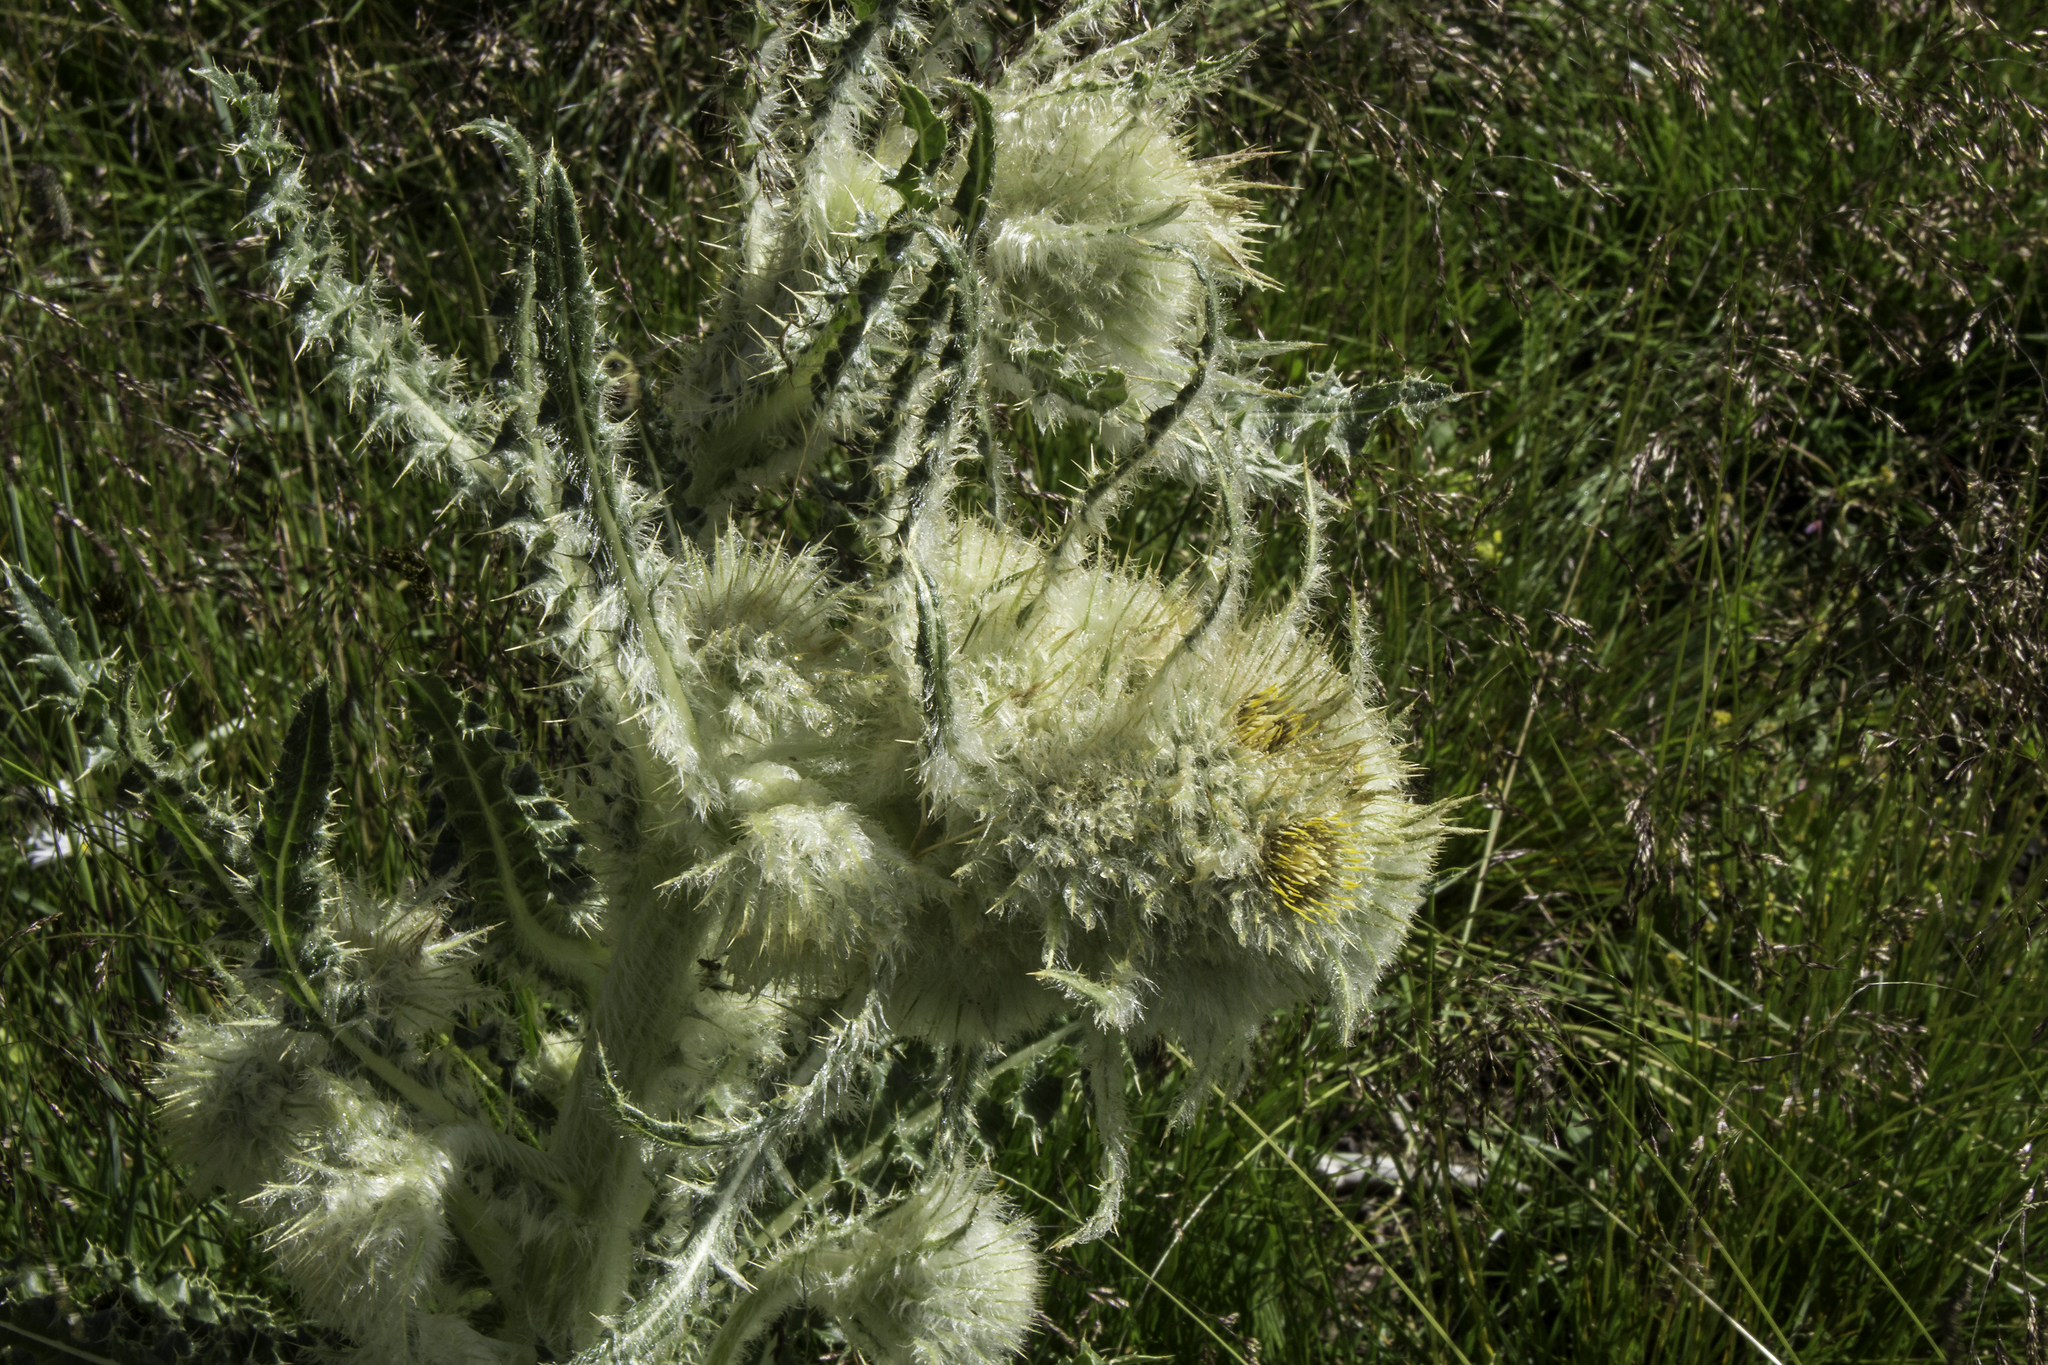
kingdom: Plantae
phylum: Tracheophyta
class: Magnoliopsida
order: Asterales
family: Asteraceae
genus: Cirsium
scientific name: Cirsium funkiae
